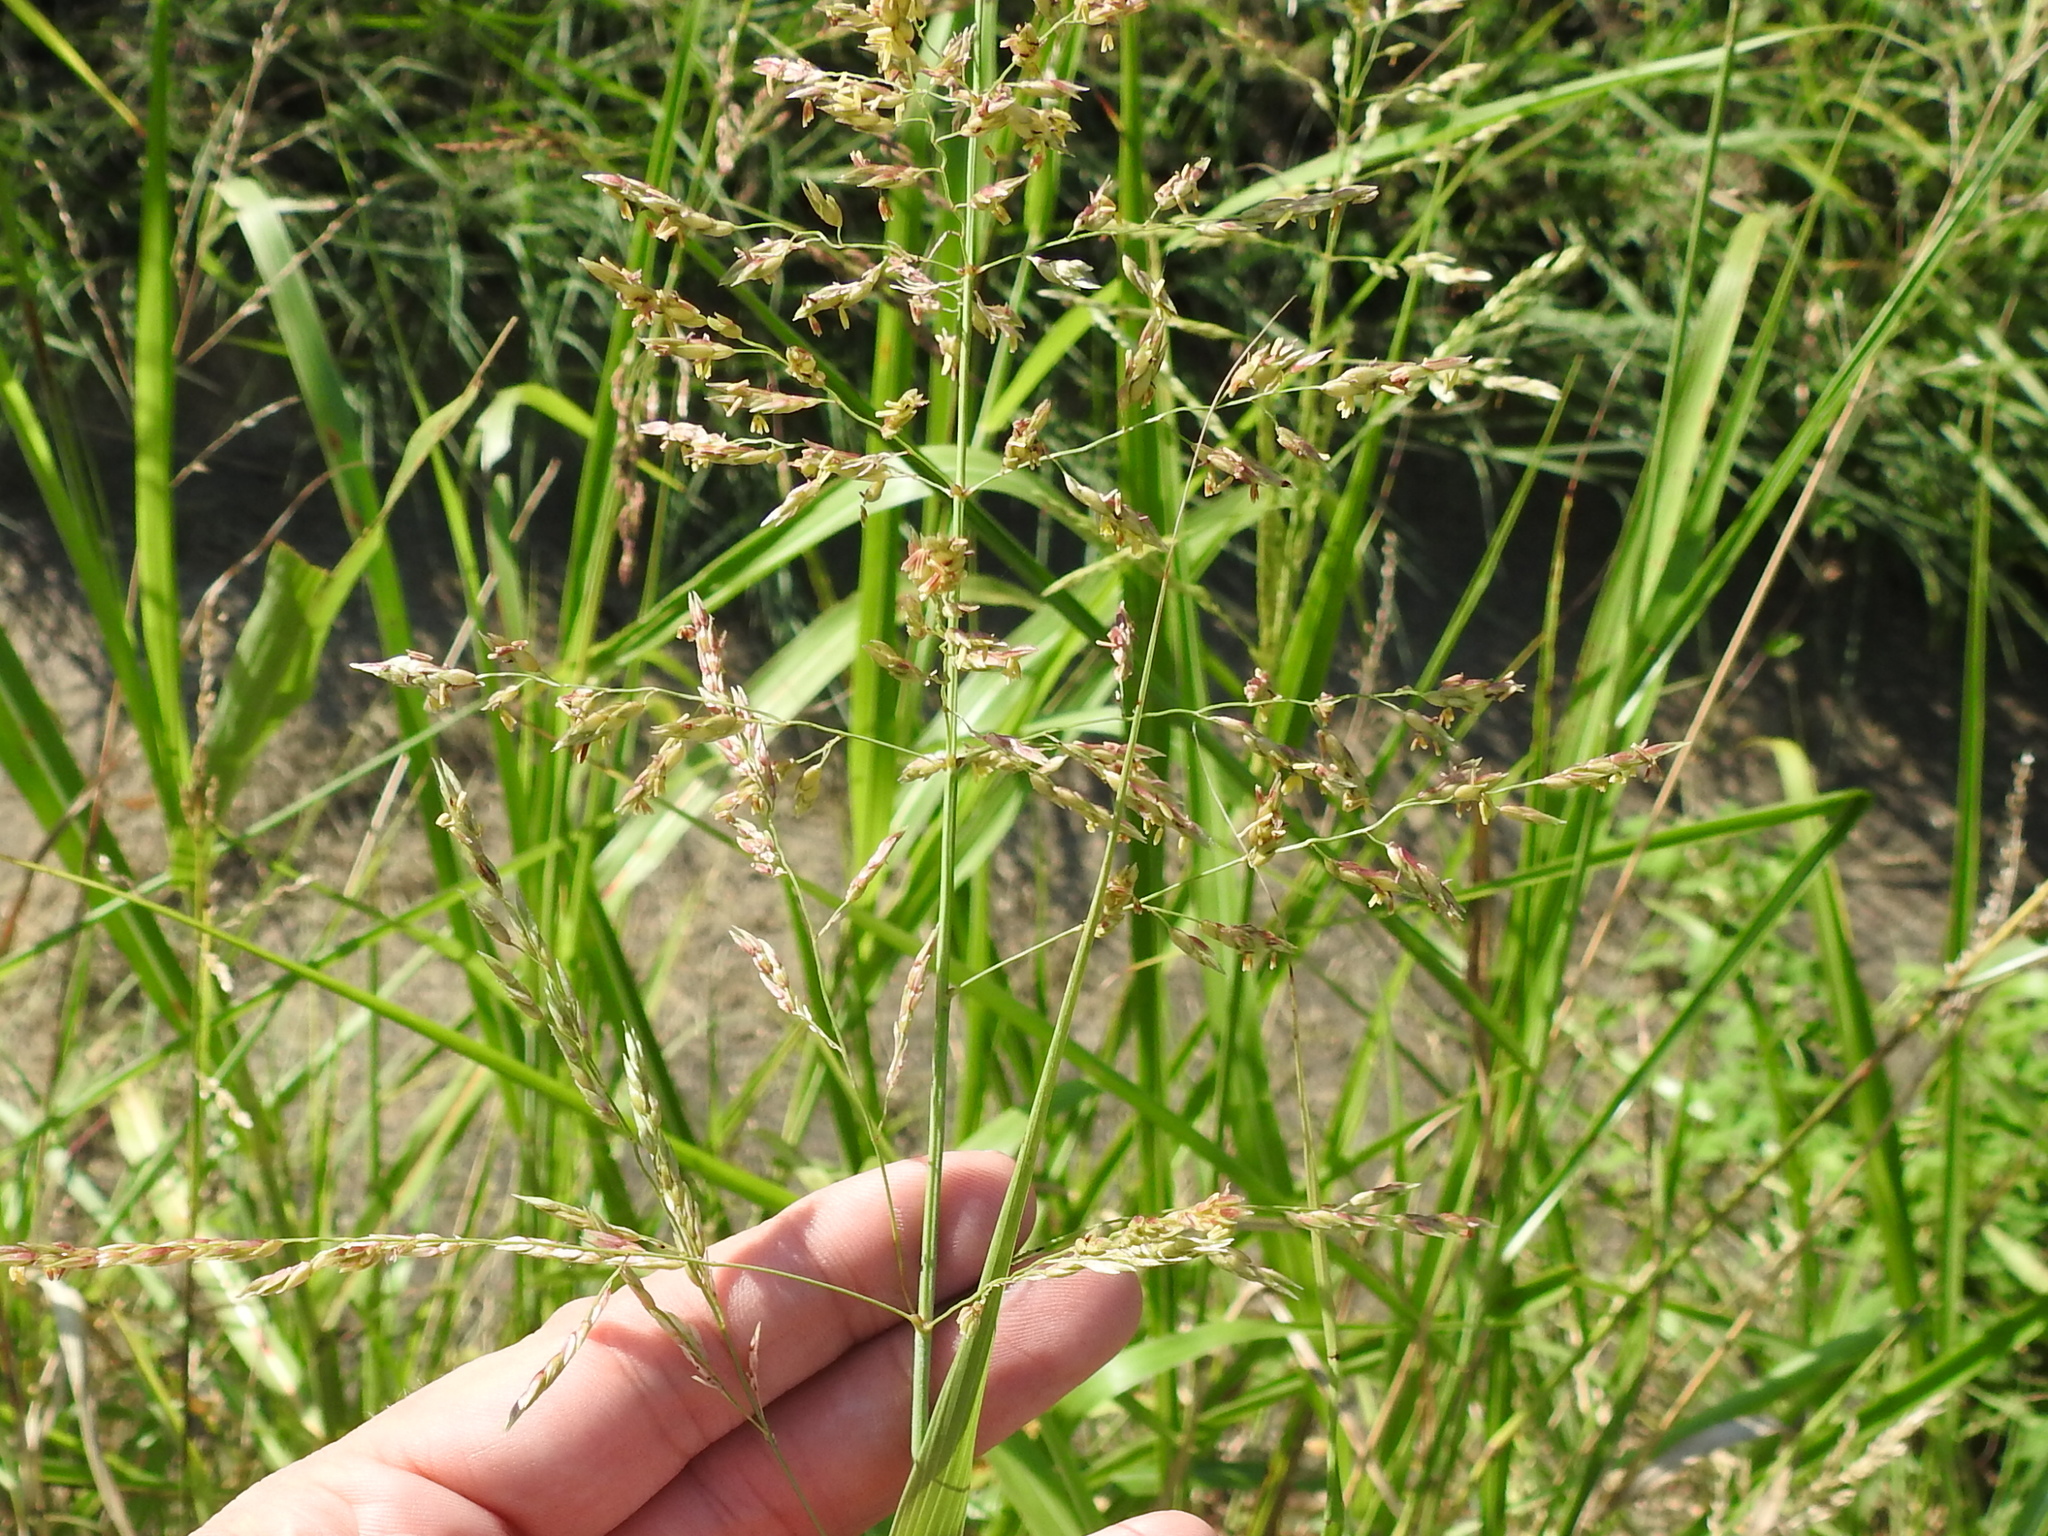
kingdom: Plantae
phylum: Tracheophyta
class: Liliopsida
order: Poales
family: Poaceae
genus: Sorghum
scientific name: Sorghum halepense
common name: Johnson-grass
